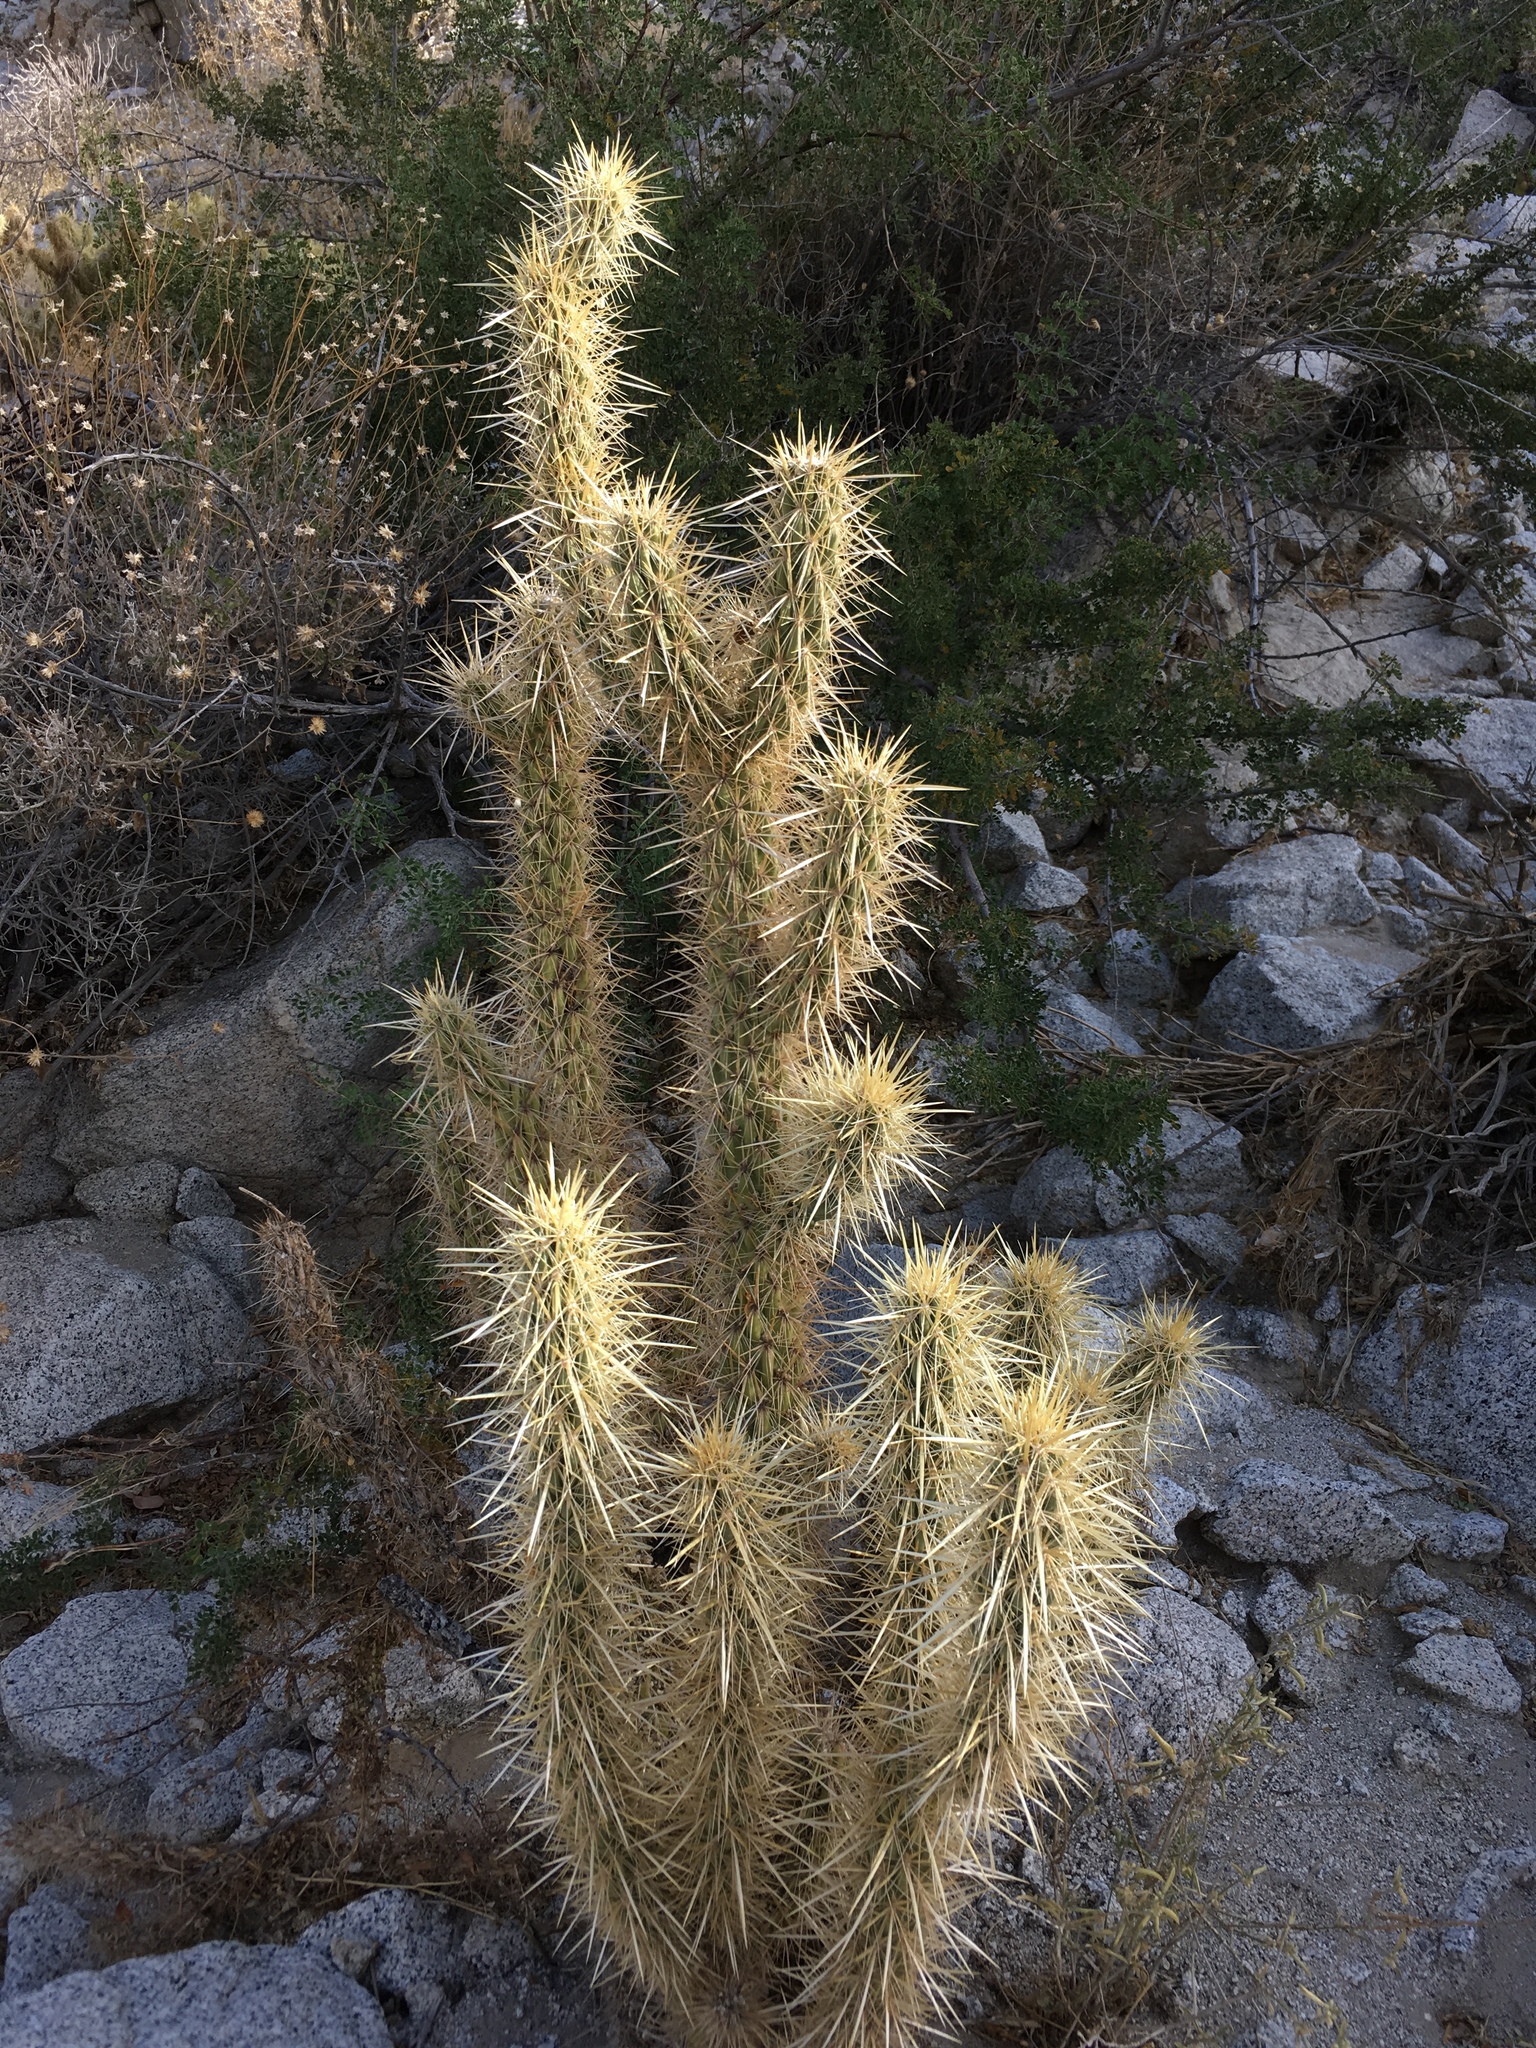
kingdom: Plantae
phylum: Tracheophyta
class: Magnoliopsida
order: Caryophyllales
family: Cactaceae
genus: Cylindropuntia
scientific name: Cylindropuntia ganderi
